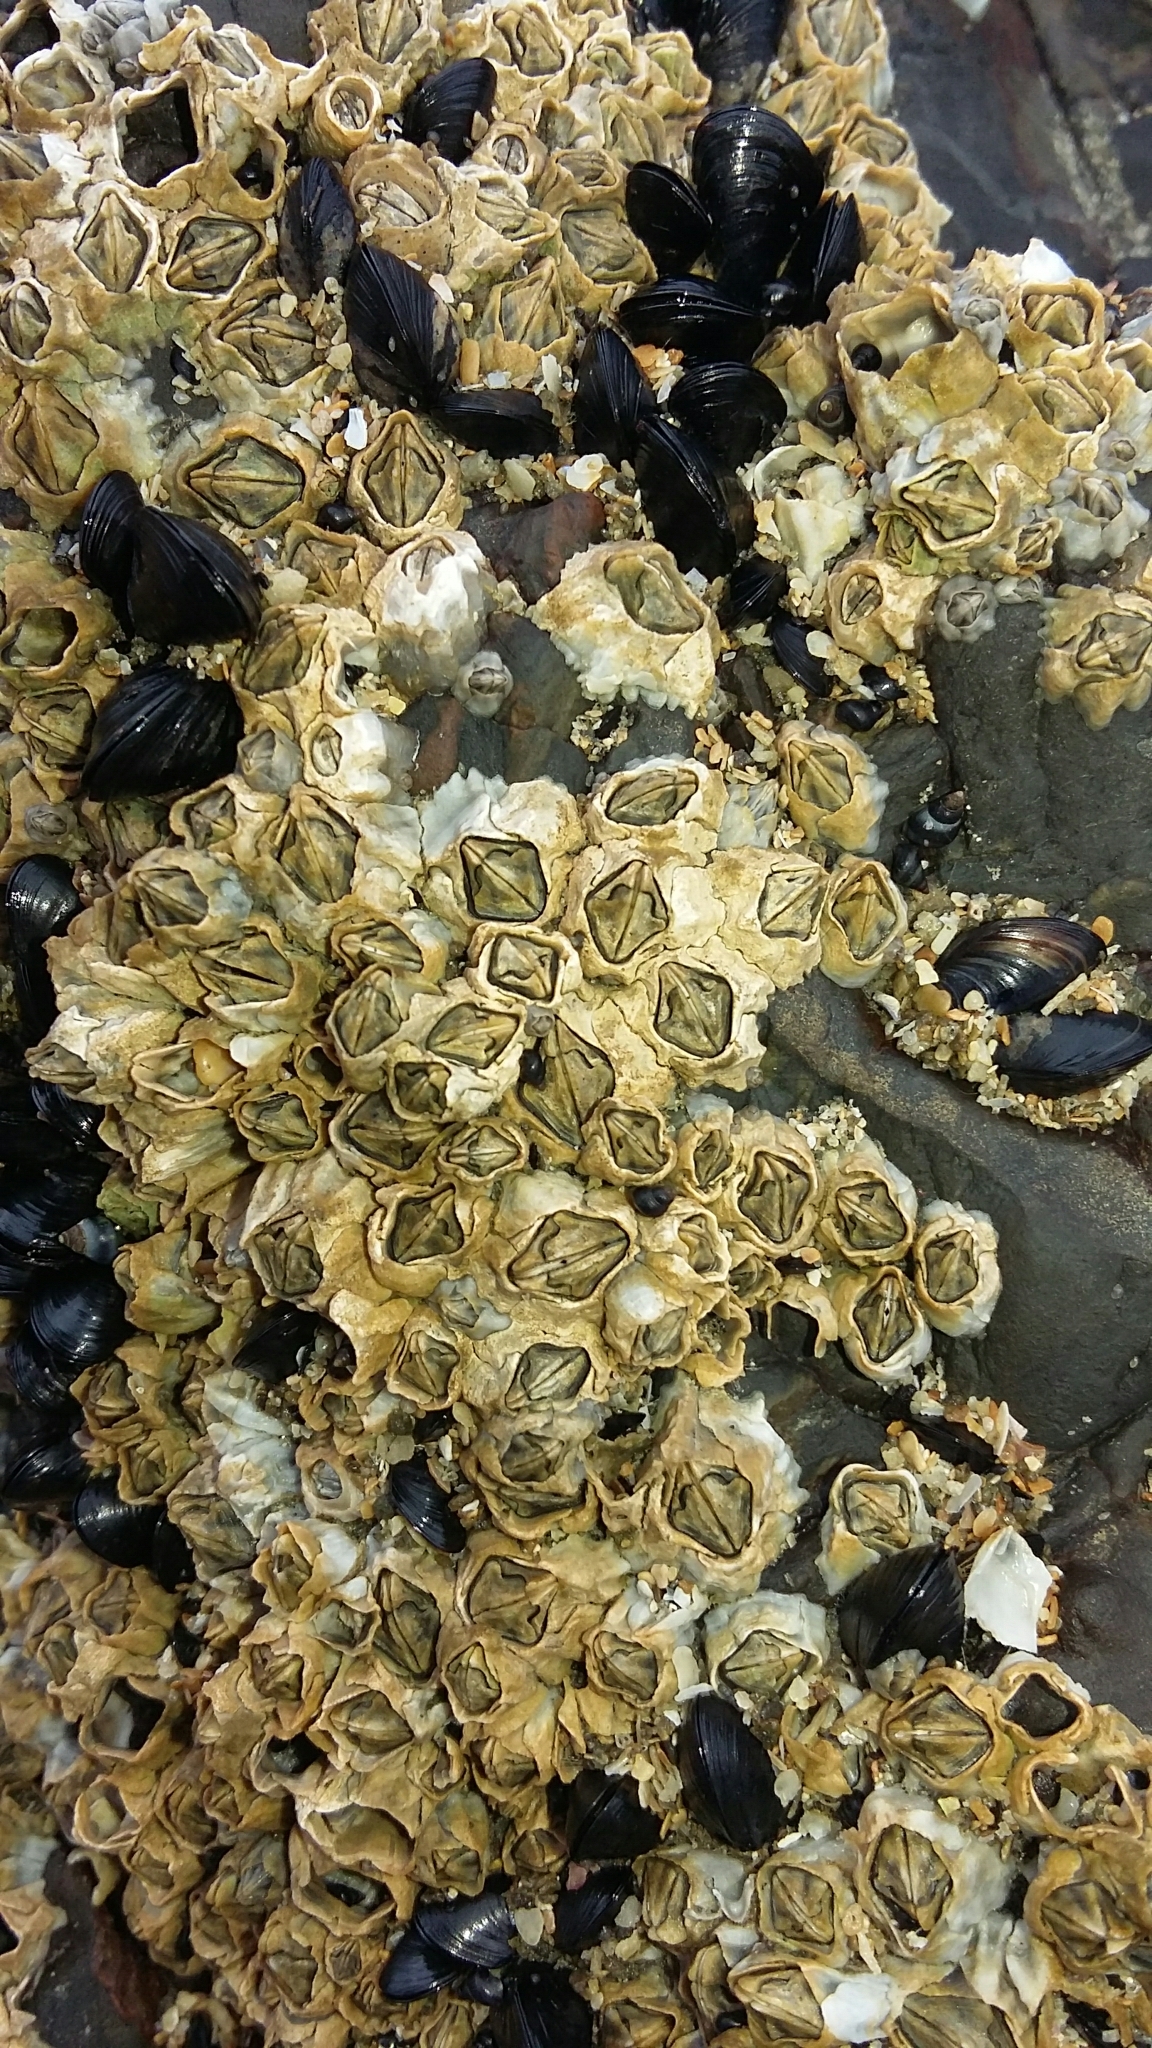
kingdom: Animalia
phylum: Arthropoda
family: Elminiidae
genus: Austrominius
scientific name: Austrominius modestus
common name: Australasian barnacle
